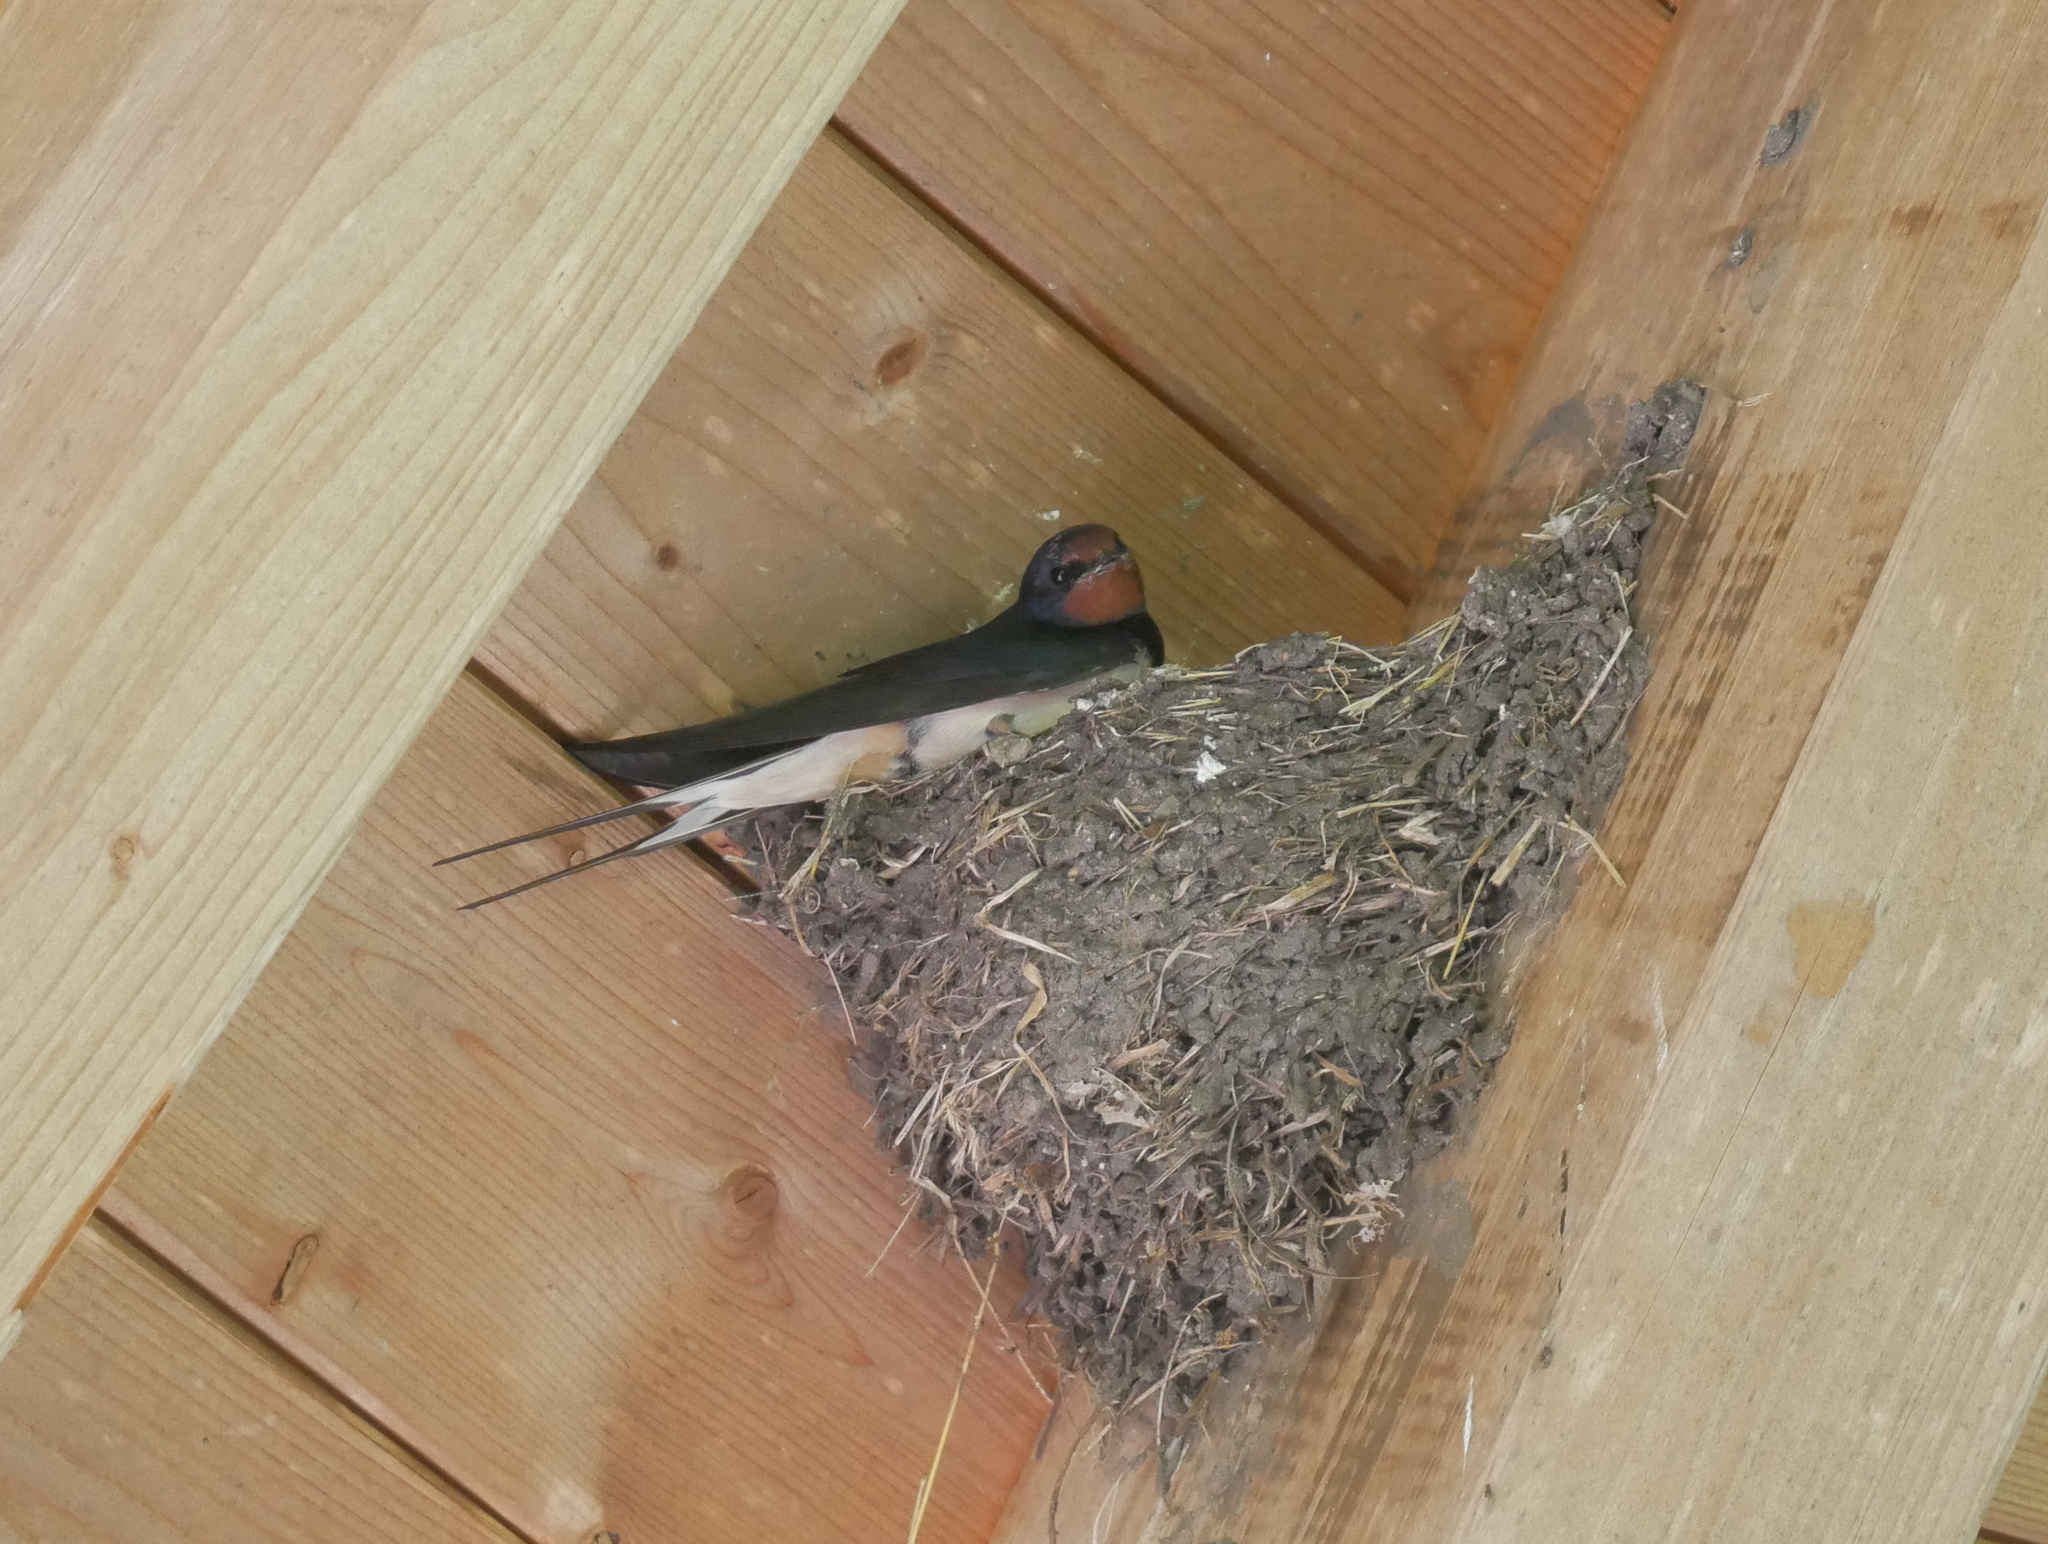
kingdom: Animalia
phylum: Chordata
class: Aves
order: Passeriformes
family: Hirundinidae
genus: Hirundo
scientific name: Hirundo rustica
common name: Barn swallow
